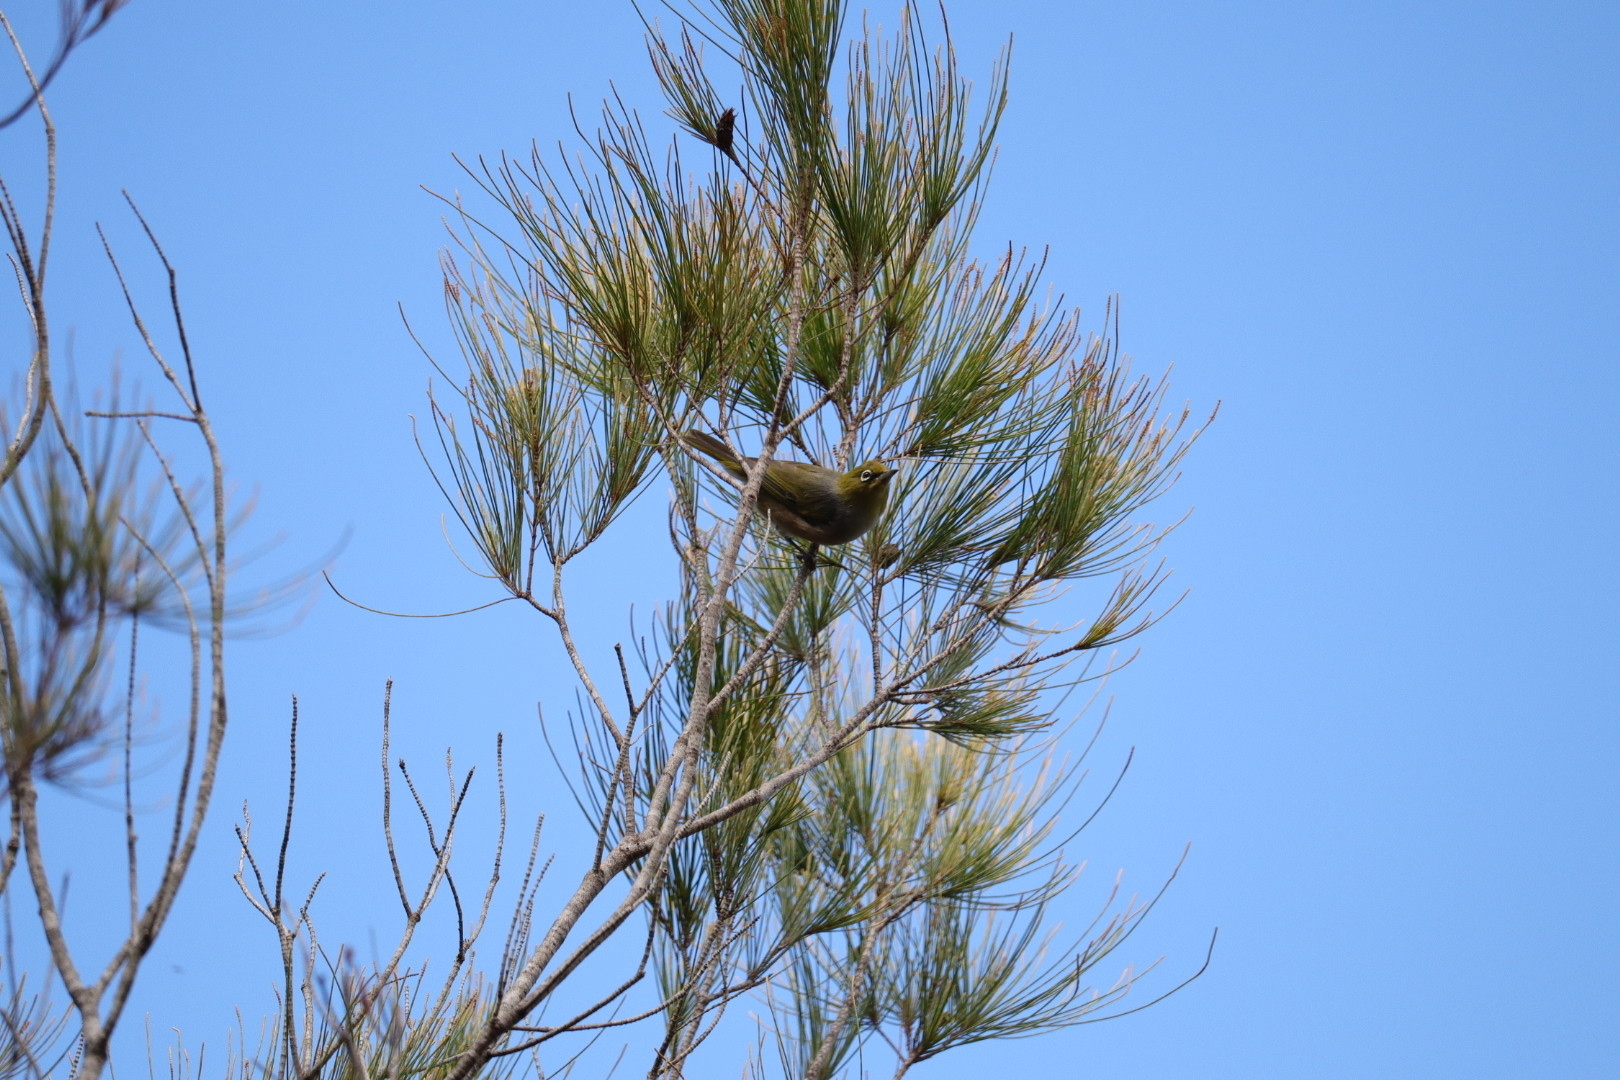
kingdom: Animalia
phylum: Chordata
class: Aves
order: Passeriformes
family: Zosteropidae
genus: Zosterops
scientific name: Zosterops lateralis
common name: Silvereye
